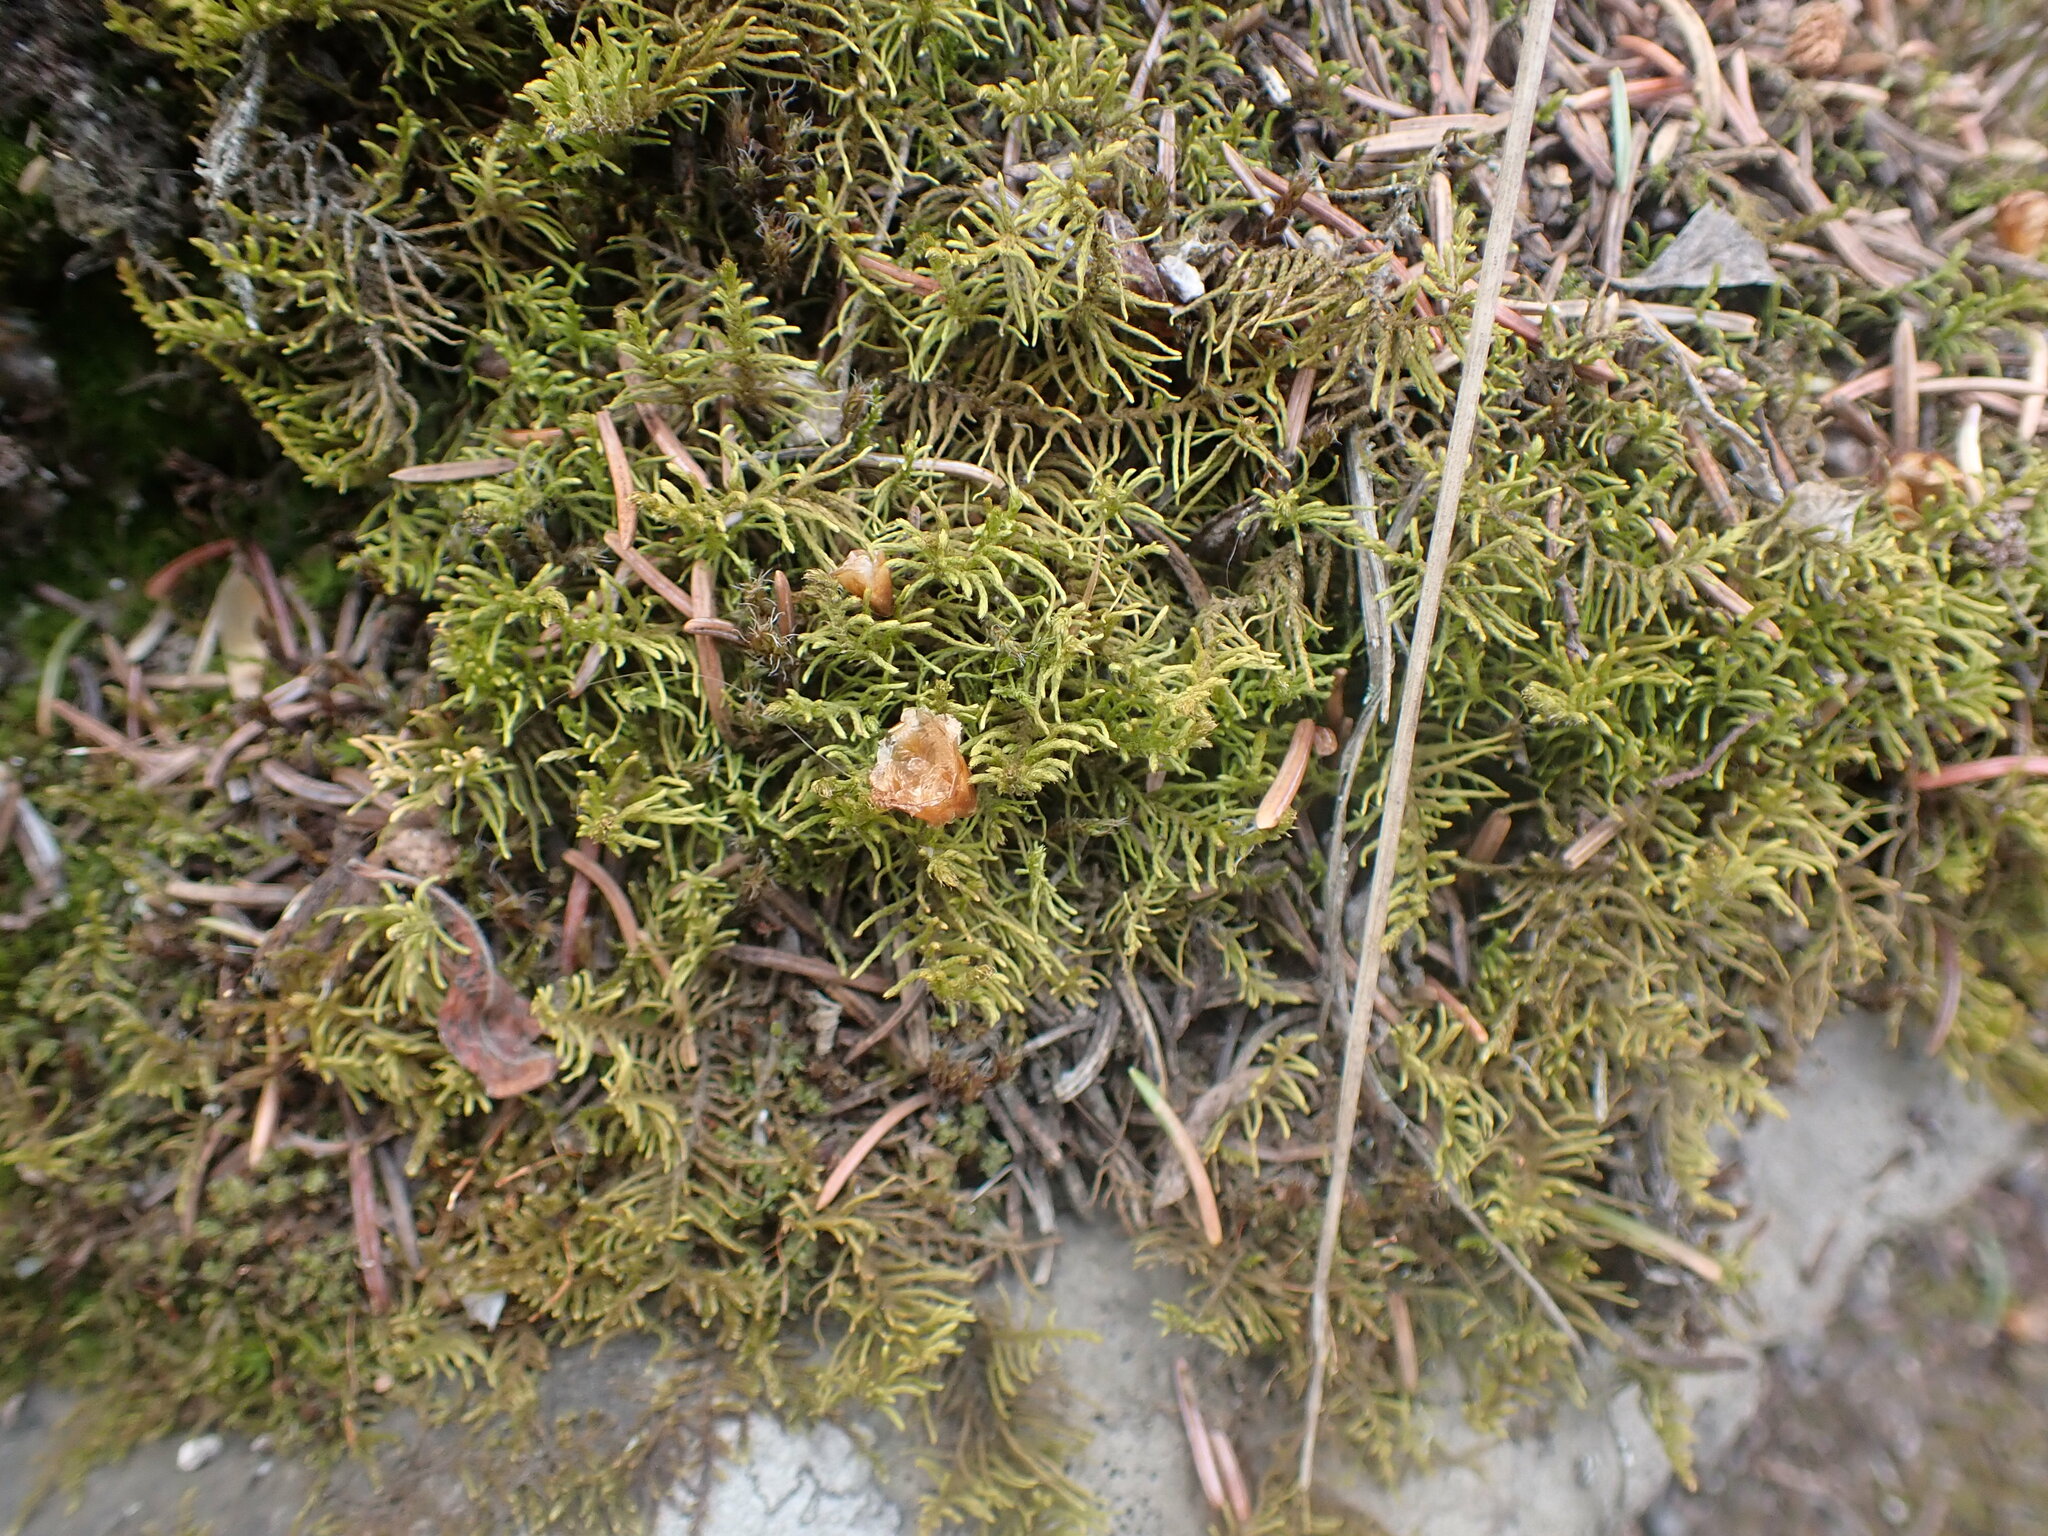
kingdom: Plantae
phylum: Bryophyta
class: Bryopsida
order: Hypnales
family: Thuidiaceae
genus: Abietinella
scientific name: Abietinella abietina
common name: Wiry fern moss
